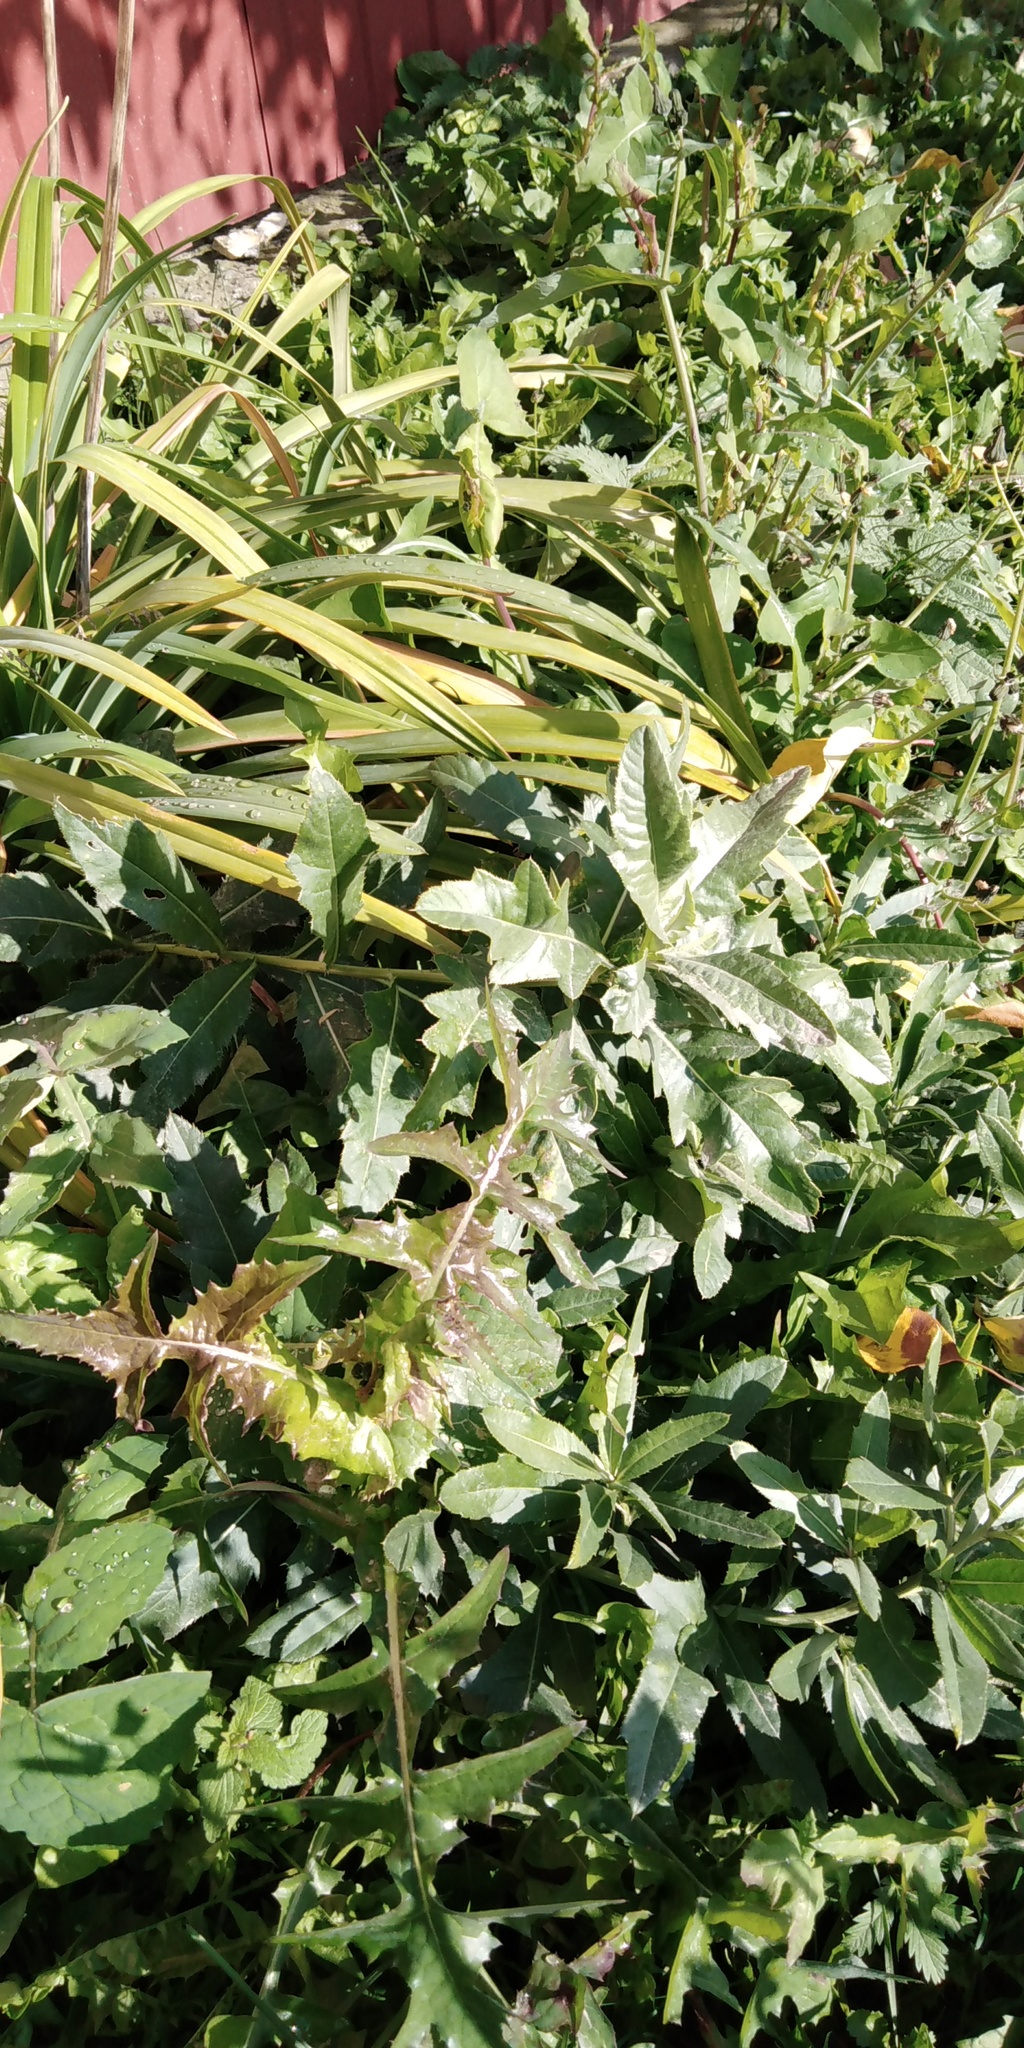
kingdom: Plantae
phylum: Tracheophyta
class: Magnoliopsida
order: Asterales
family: Asteraceae
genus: Sonchus
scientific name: Sonchus oleraceus
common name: Common sowthistle
